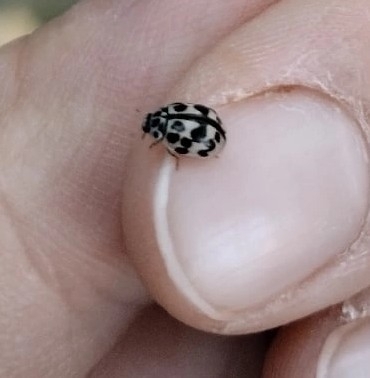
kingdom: Animalia
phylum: Arthropoda
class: Insecta
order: Coleoptera
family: Coccinellidae
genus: Oenopia
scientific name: Oenopia conglobata
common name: Ladybird beetle
